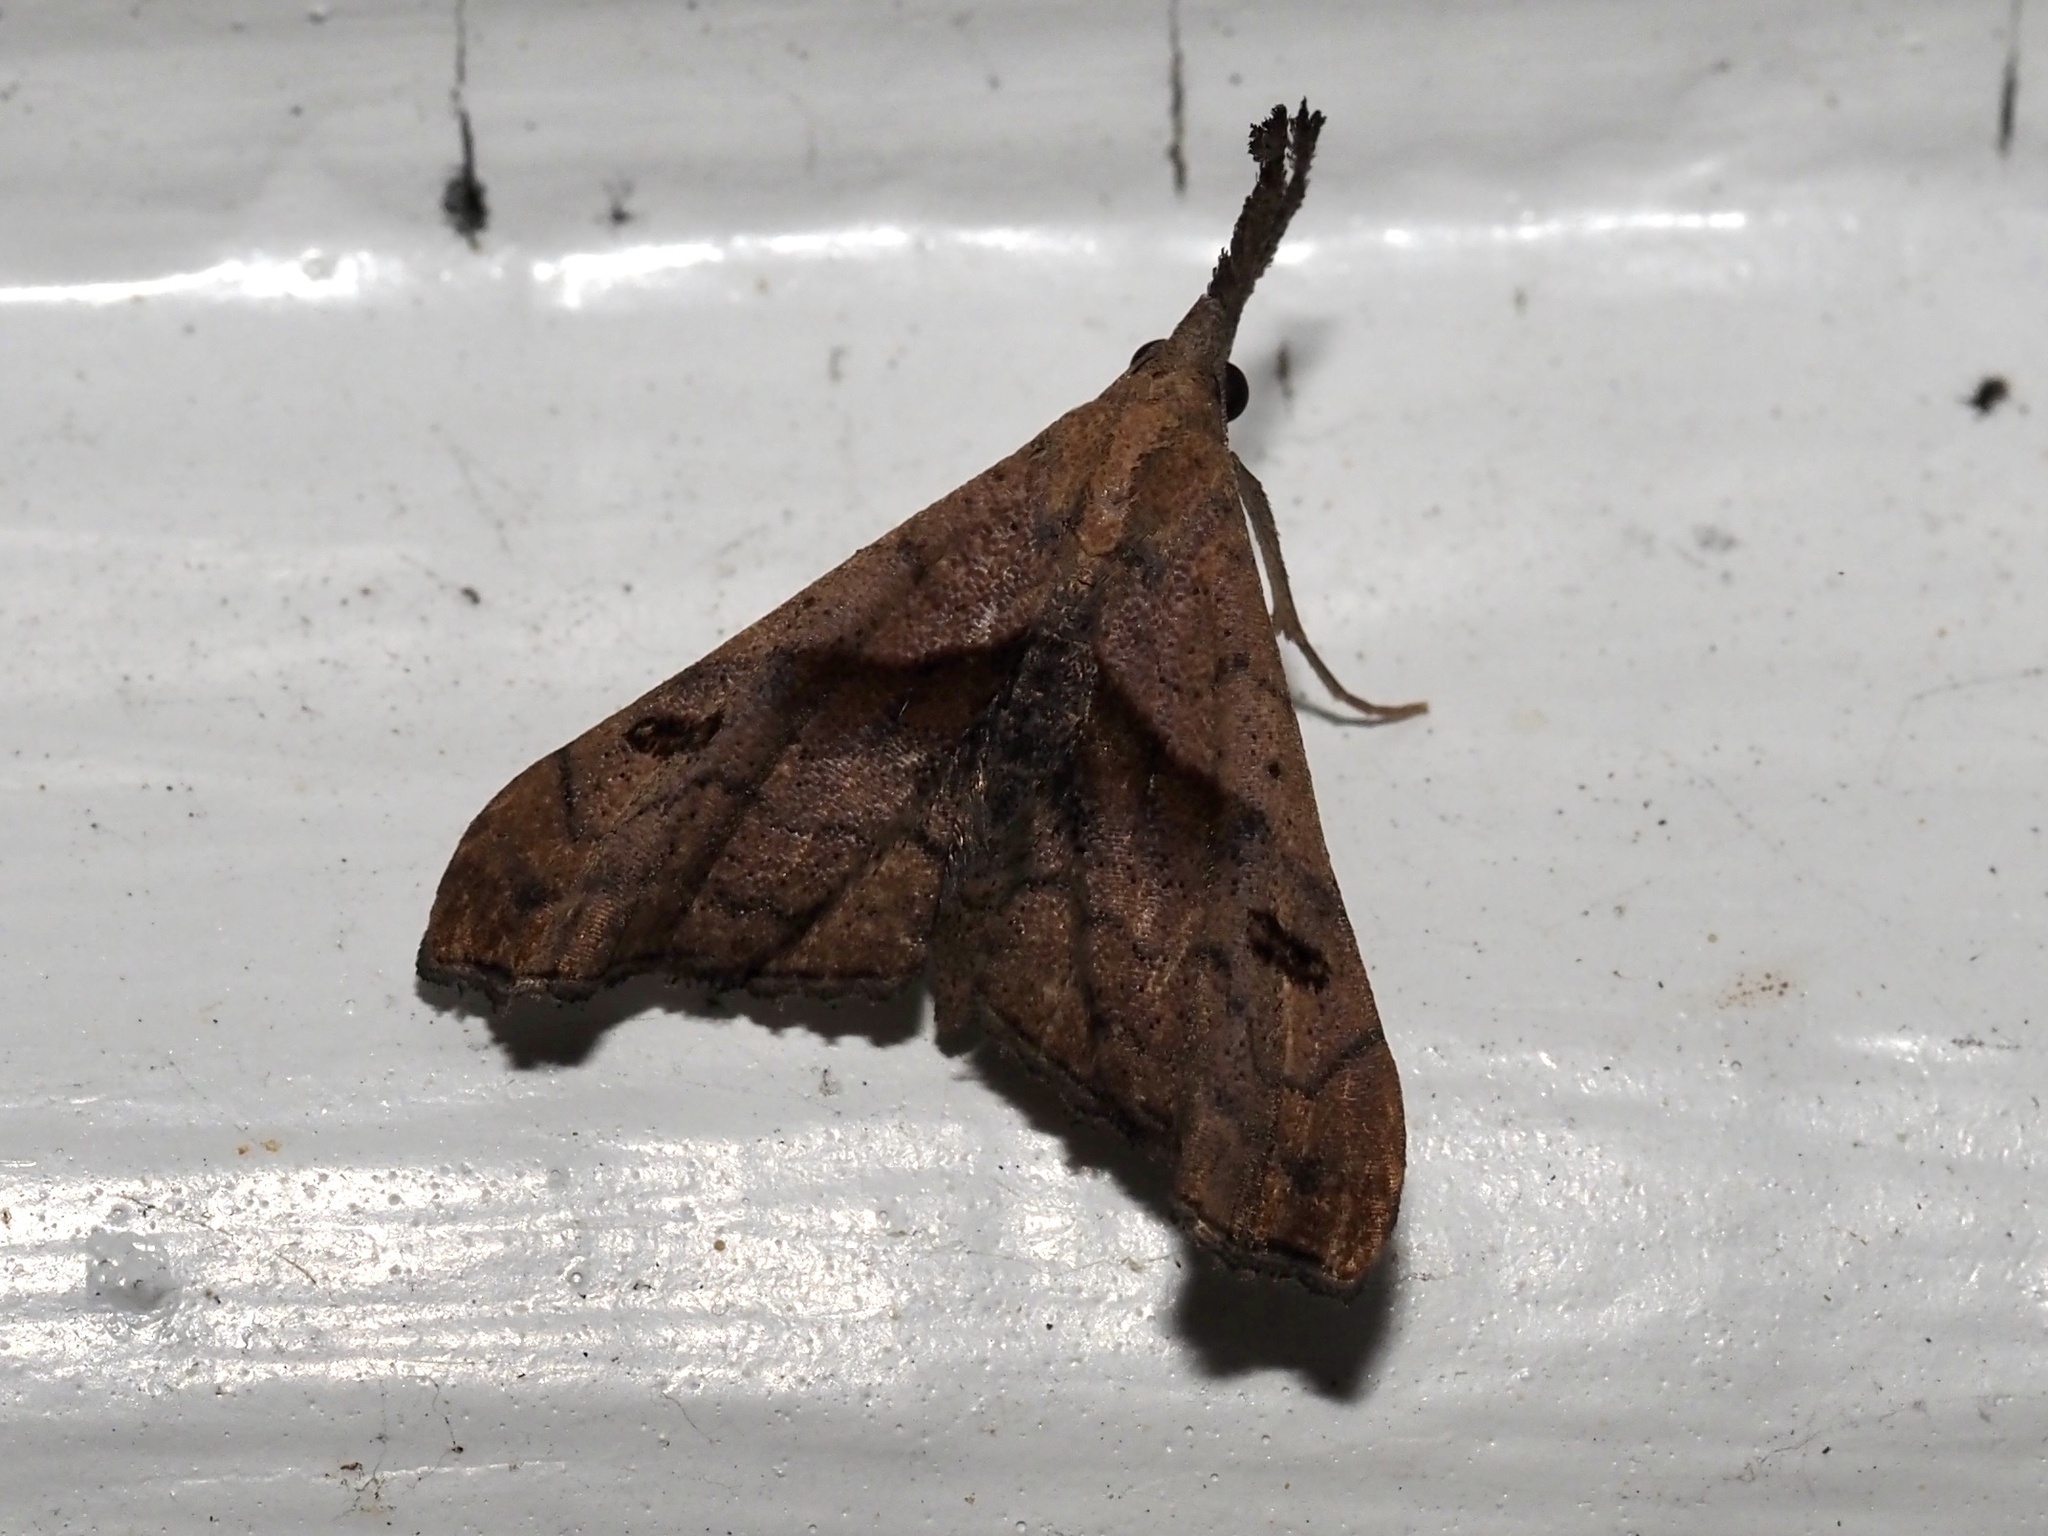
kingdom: Animalia
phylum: Arthropoda
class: Insecta
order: Lepidoptera
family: Erebidae
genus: Palthis
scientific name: Palthis angulalis
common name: Dark-spotted palthis moth
